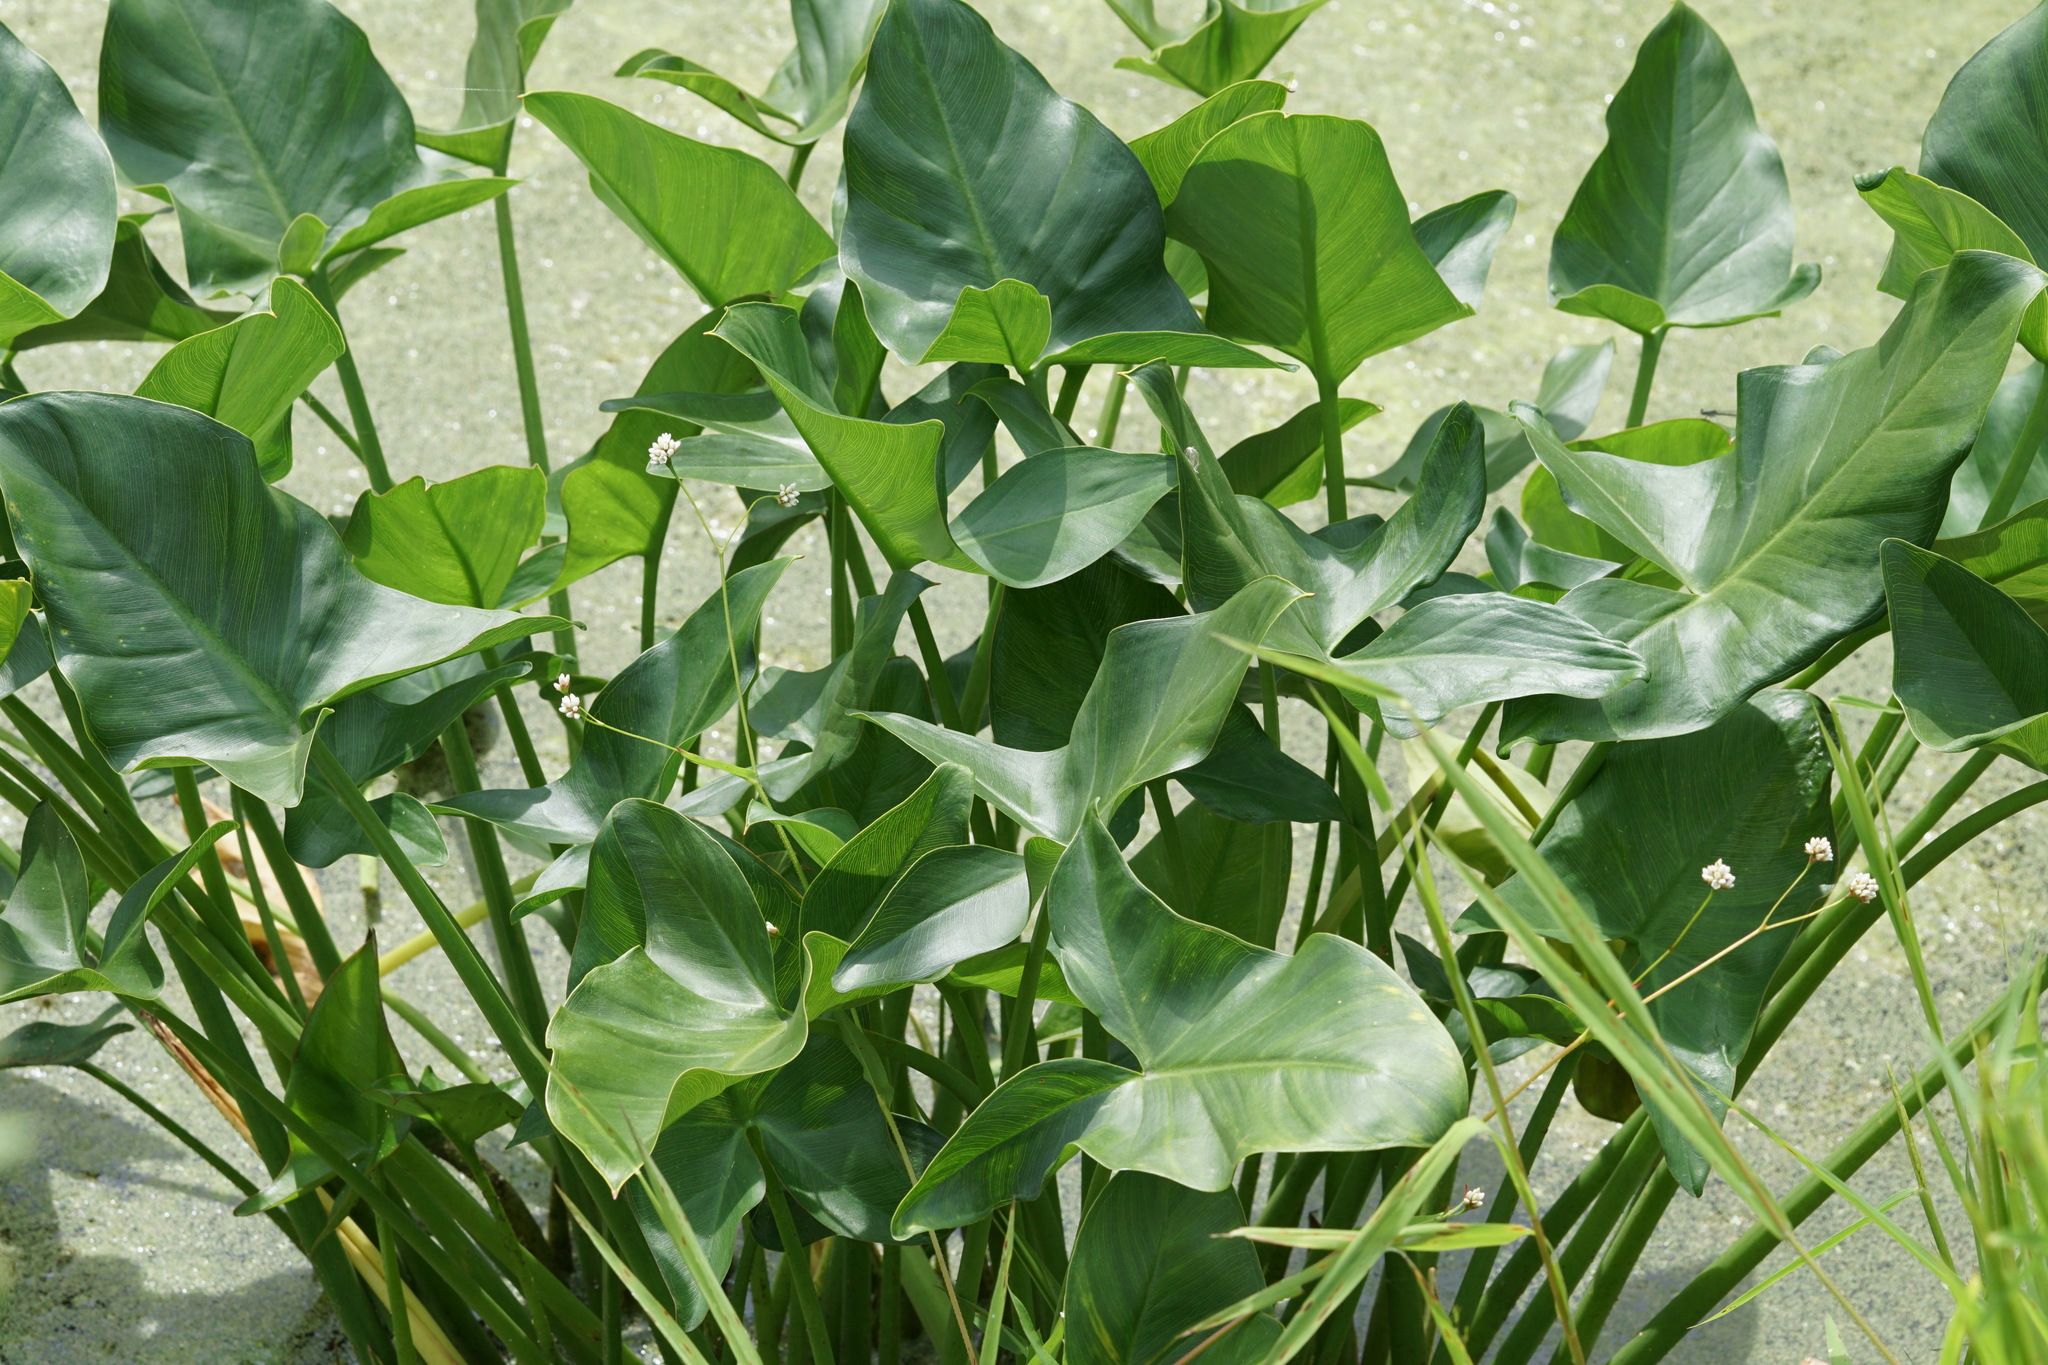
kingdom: Plantae
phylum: Tracheophyta
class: Liliopsida
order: Alismatales
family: Araceae
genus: Peltandra
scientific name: Peltandra virginica
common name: Arrow arum
